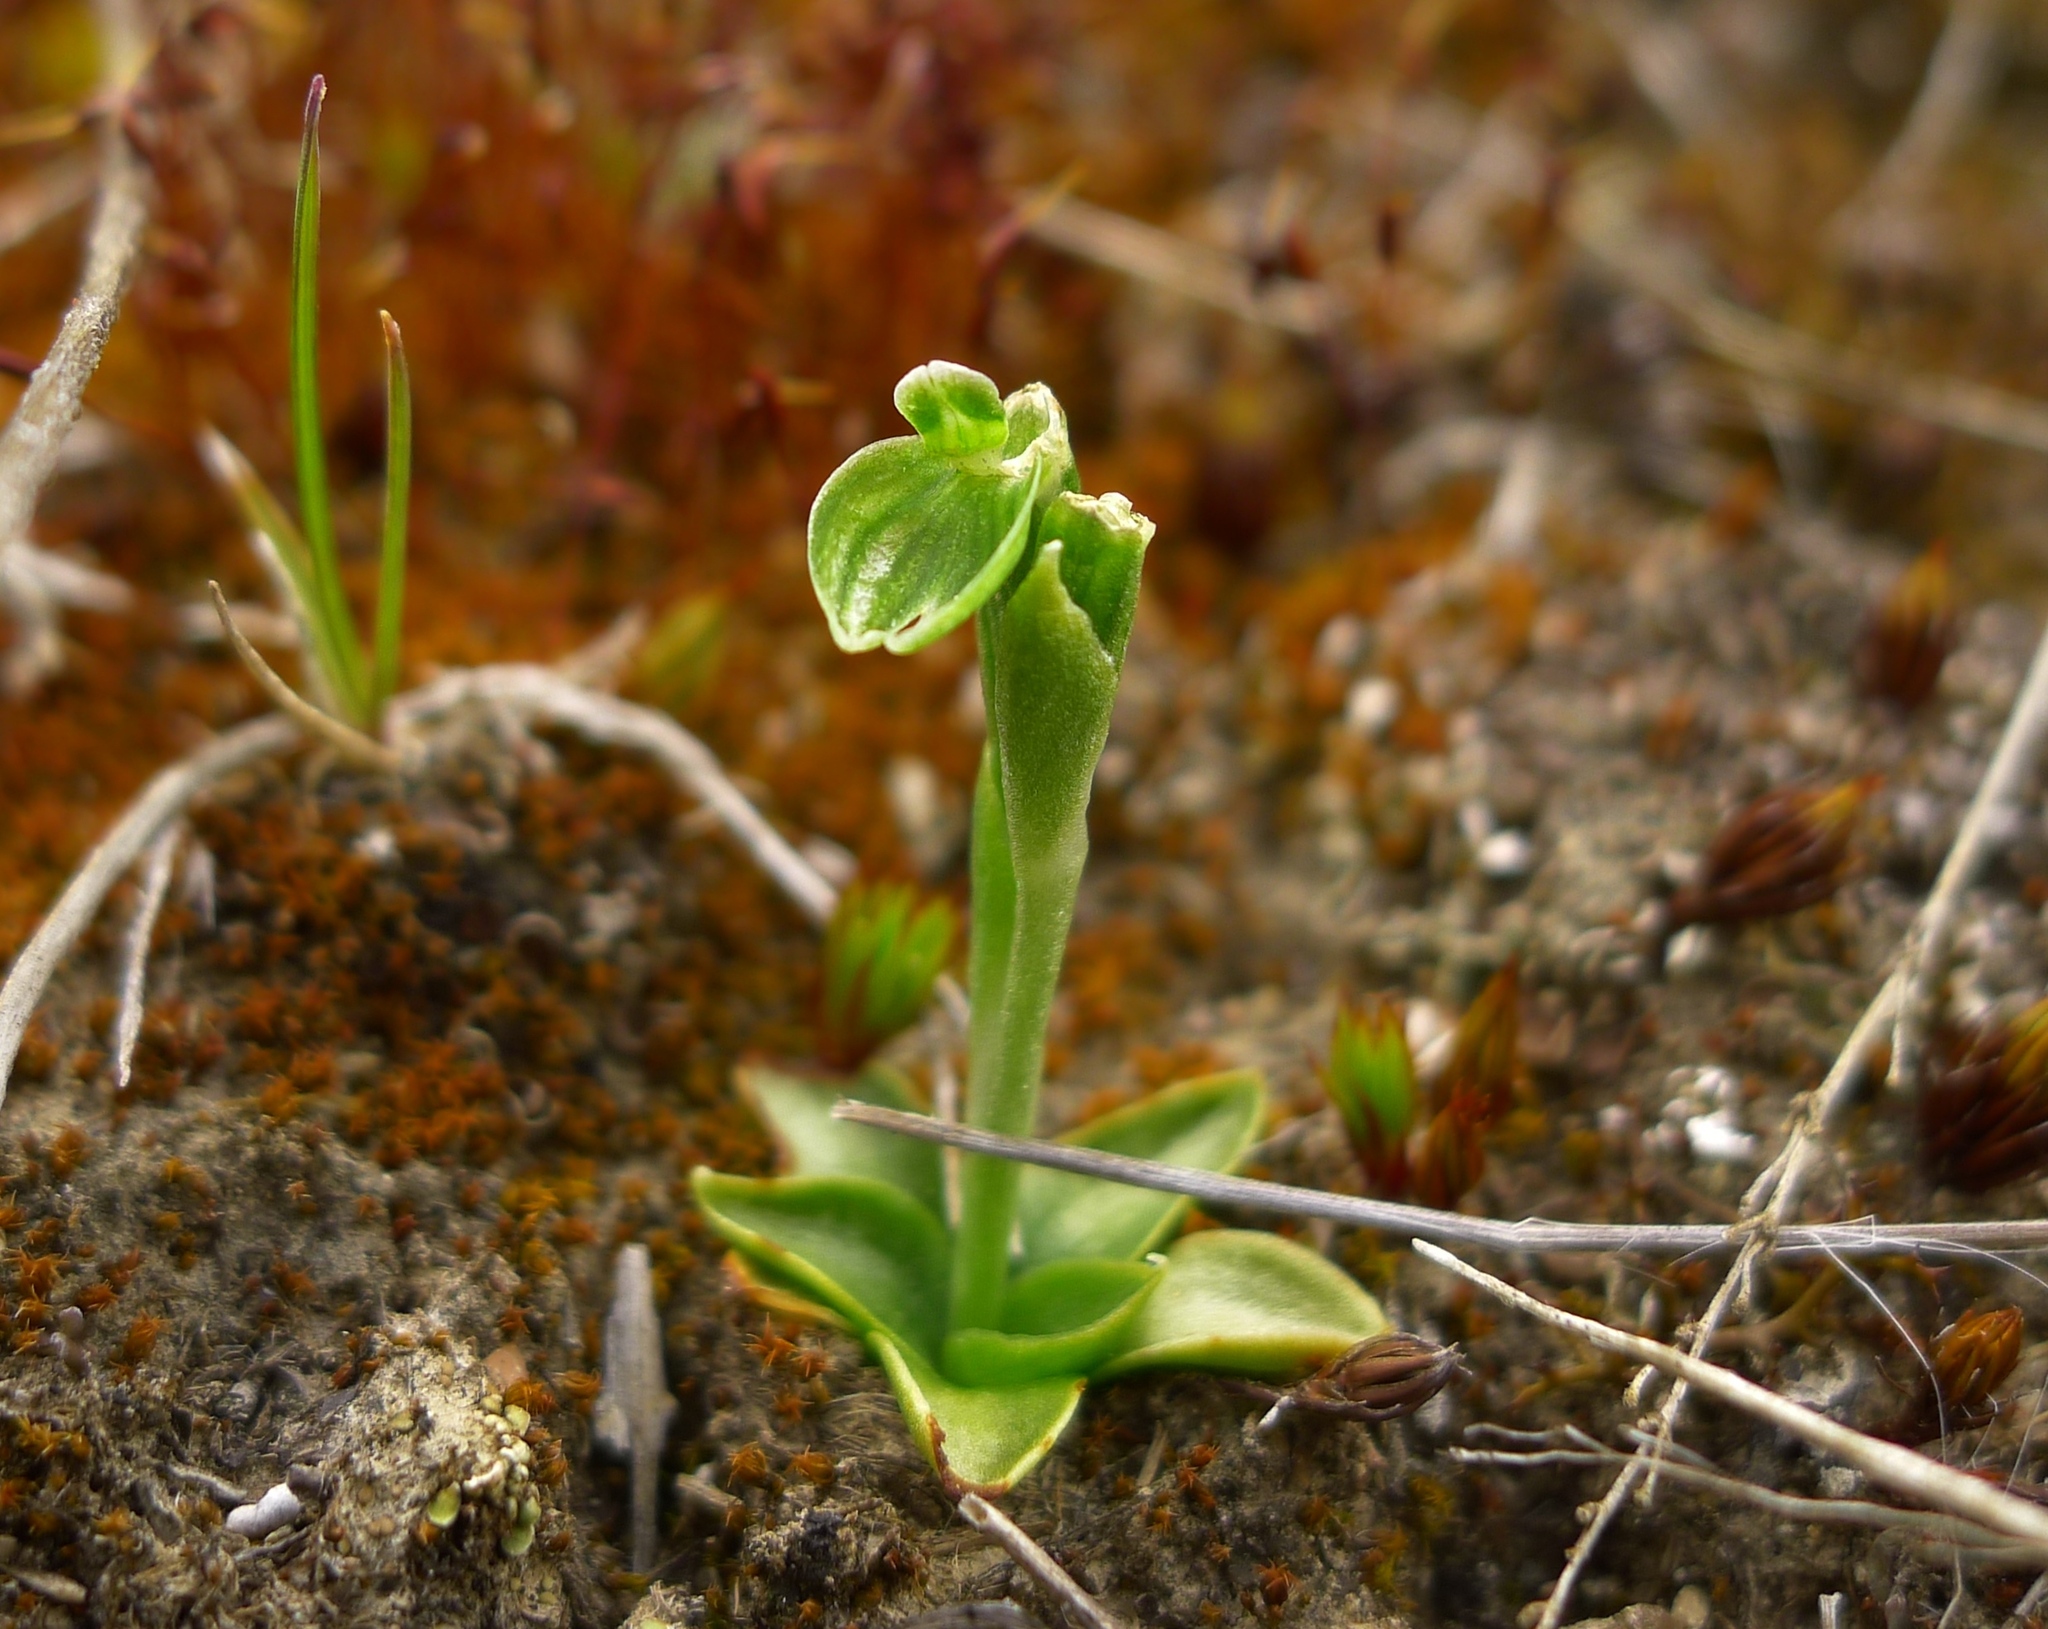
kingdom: Plantae
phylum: Tracheophyta
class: Liliopsida
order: Asparagales
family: Orchidaceae
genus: Pterostylis
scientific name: Pterostylis tanypoda
